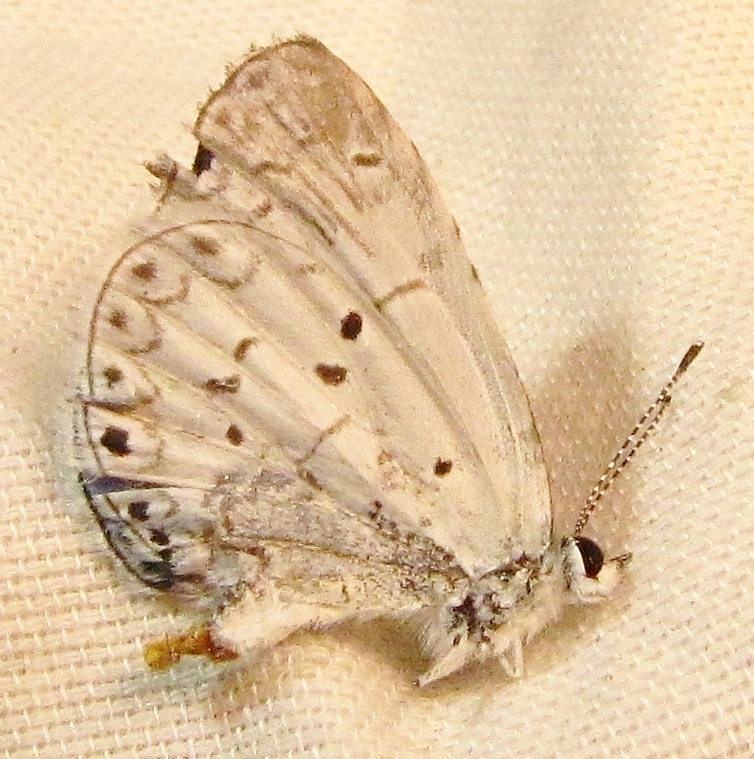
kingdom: Animalia
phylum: Arthropoda
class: Insecta
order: Lepidoptera
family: Lycaenidae
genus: Cyaniris
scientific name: Cyaniris neglecta
